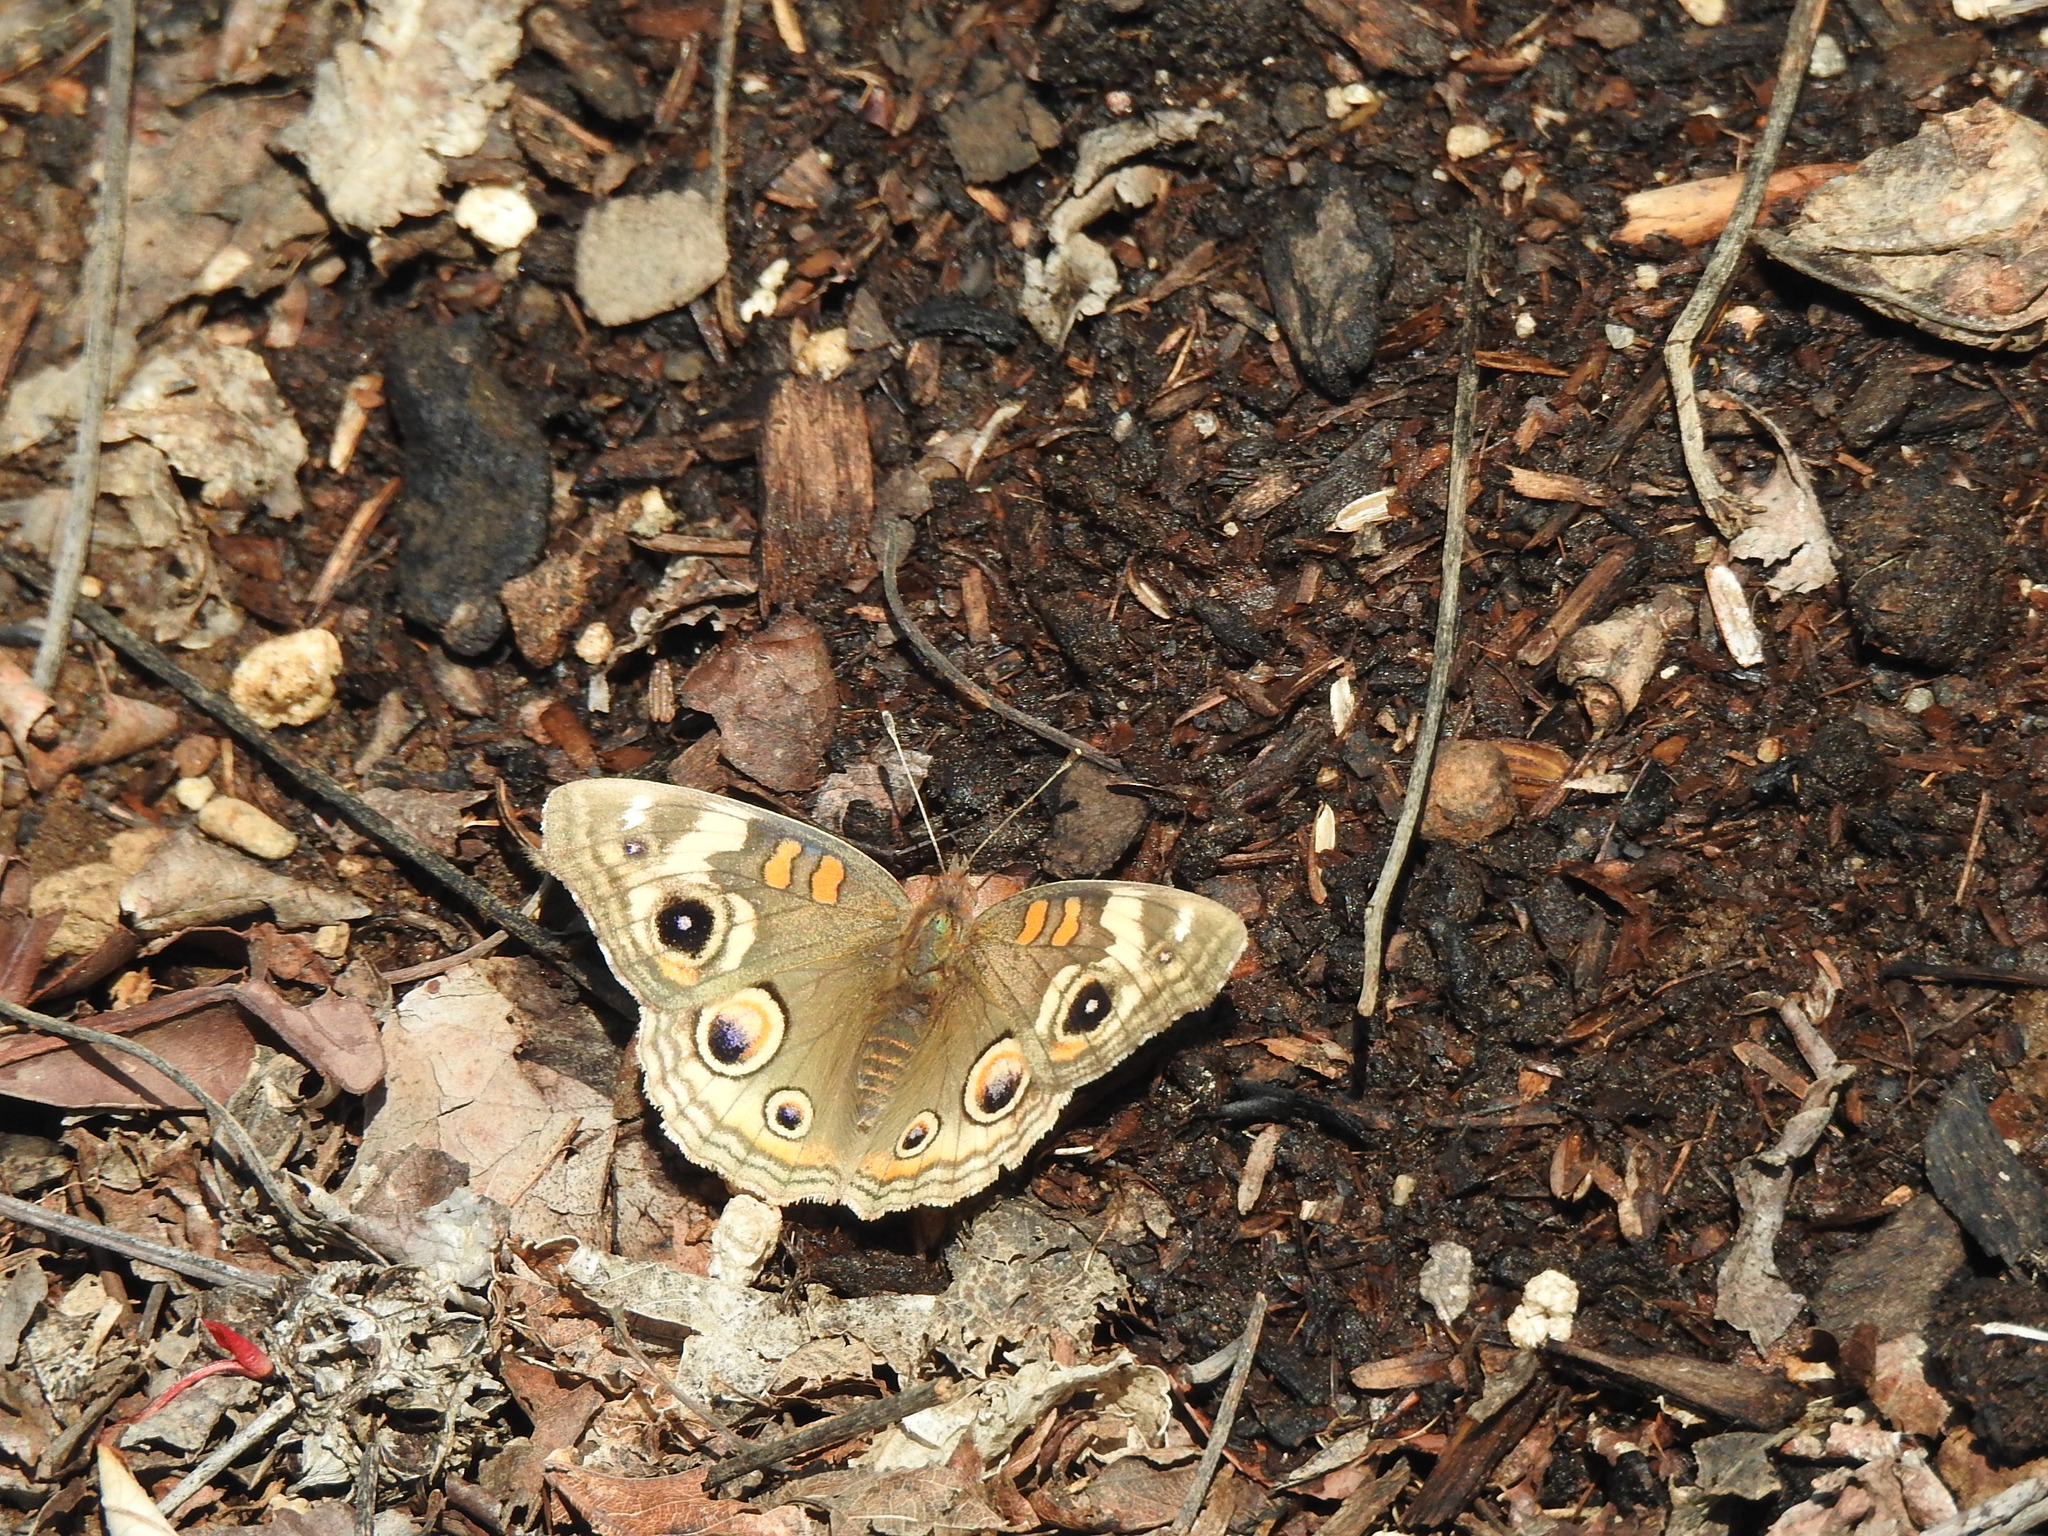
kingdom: Animalia
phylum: Arthropoda
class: Insecta
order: Lepidoptera
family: Nymphalidae
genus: Junonia
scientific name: Junonia grisea
